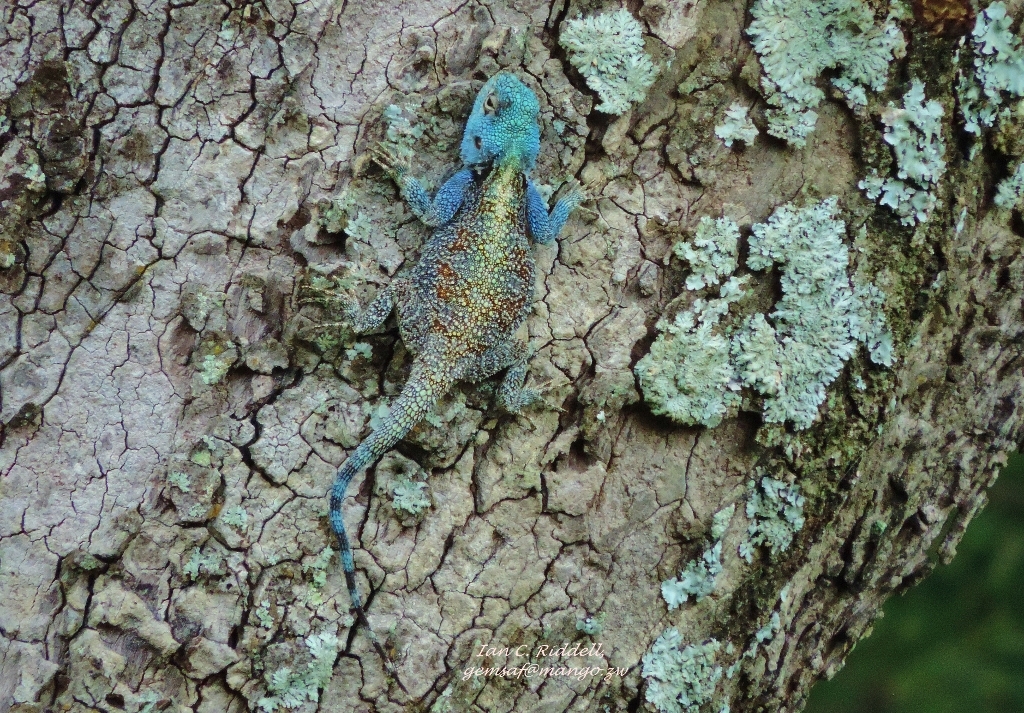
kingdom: Animalia
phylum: Chordata
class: Squamata
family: Agamidae
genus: Acanthocercus
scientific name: Acanthocercus atricollis
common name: Southern tree agama
